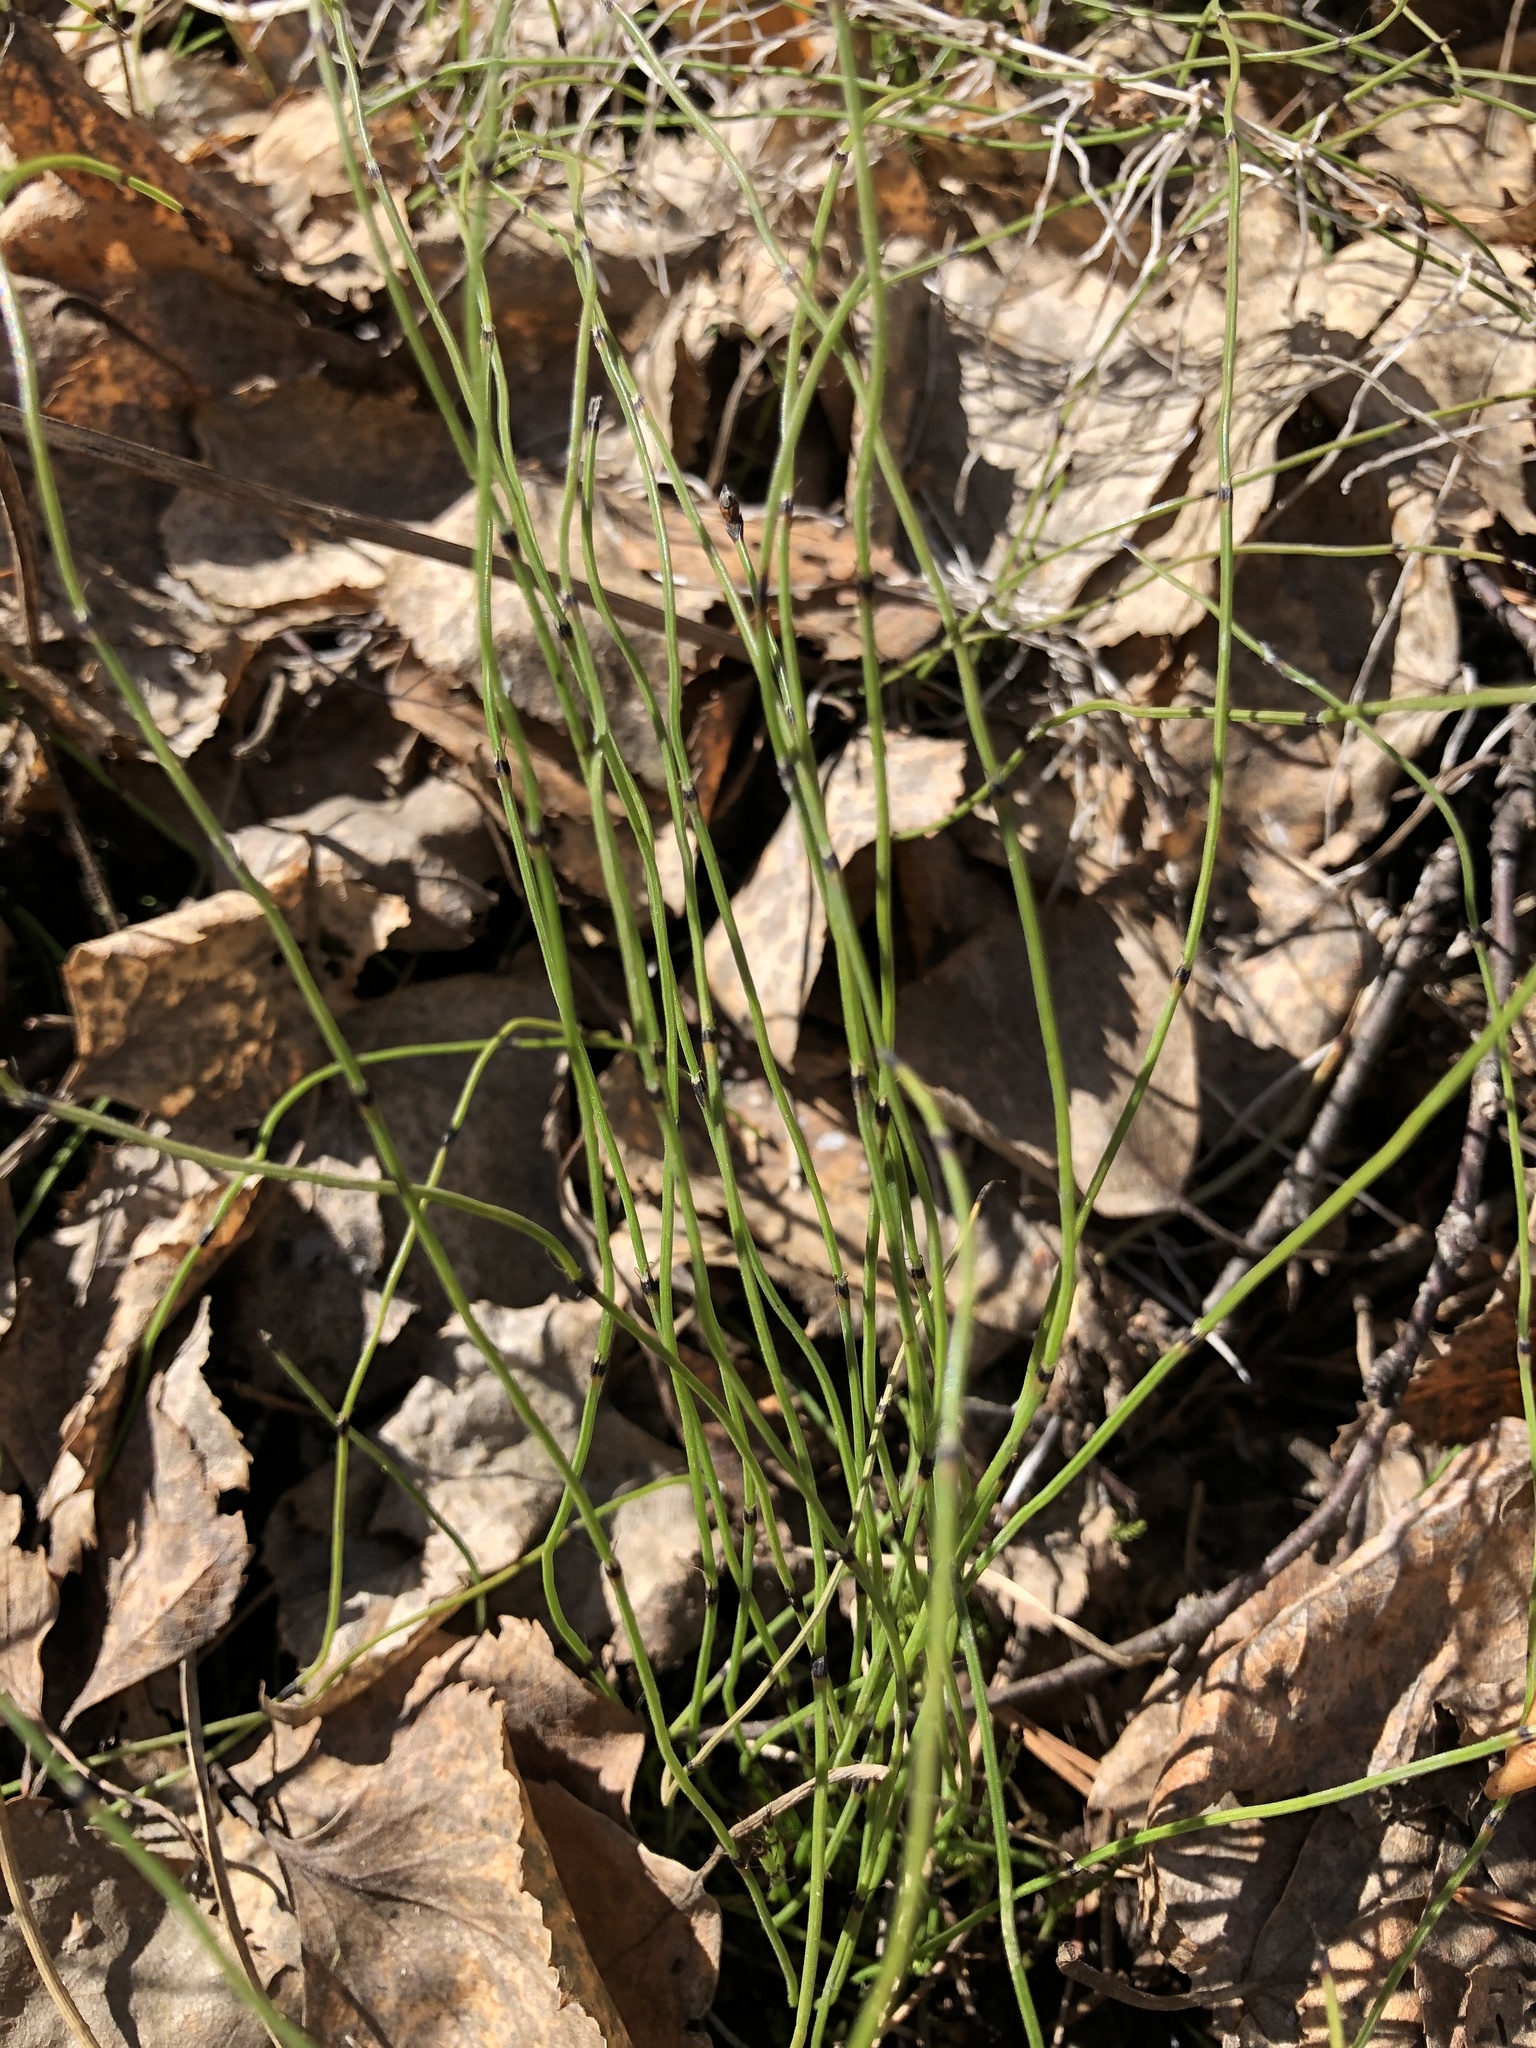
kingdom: Plantae
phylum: Tracheophyta
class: Polypodiopsida
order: Equisetales
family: Equisetaceae
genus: Equisetum
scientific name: Equisetum scirpoides
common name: Delicate horsetail
